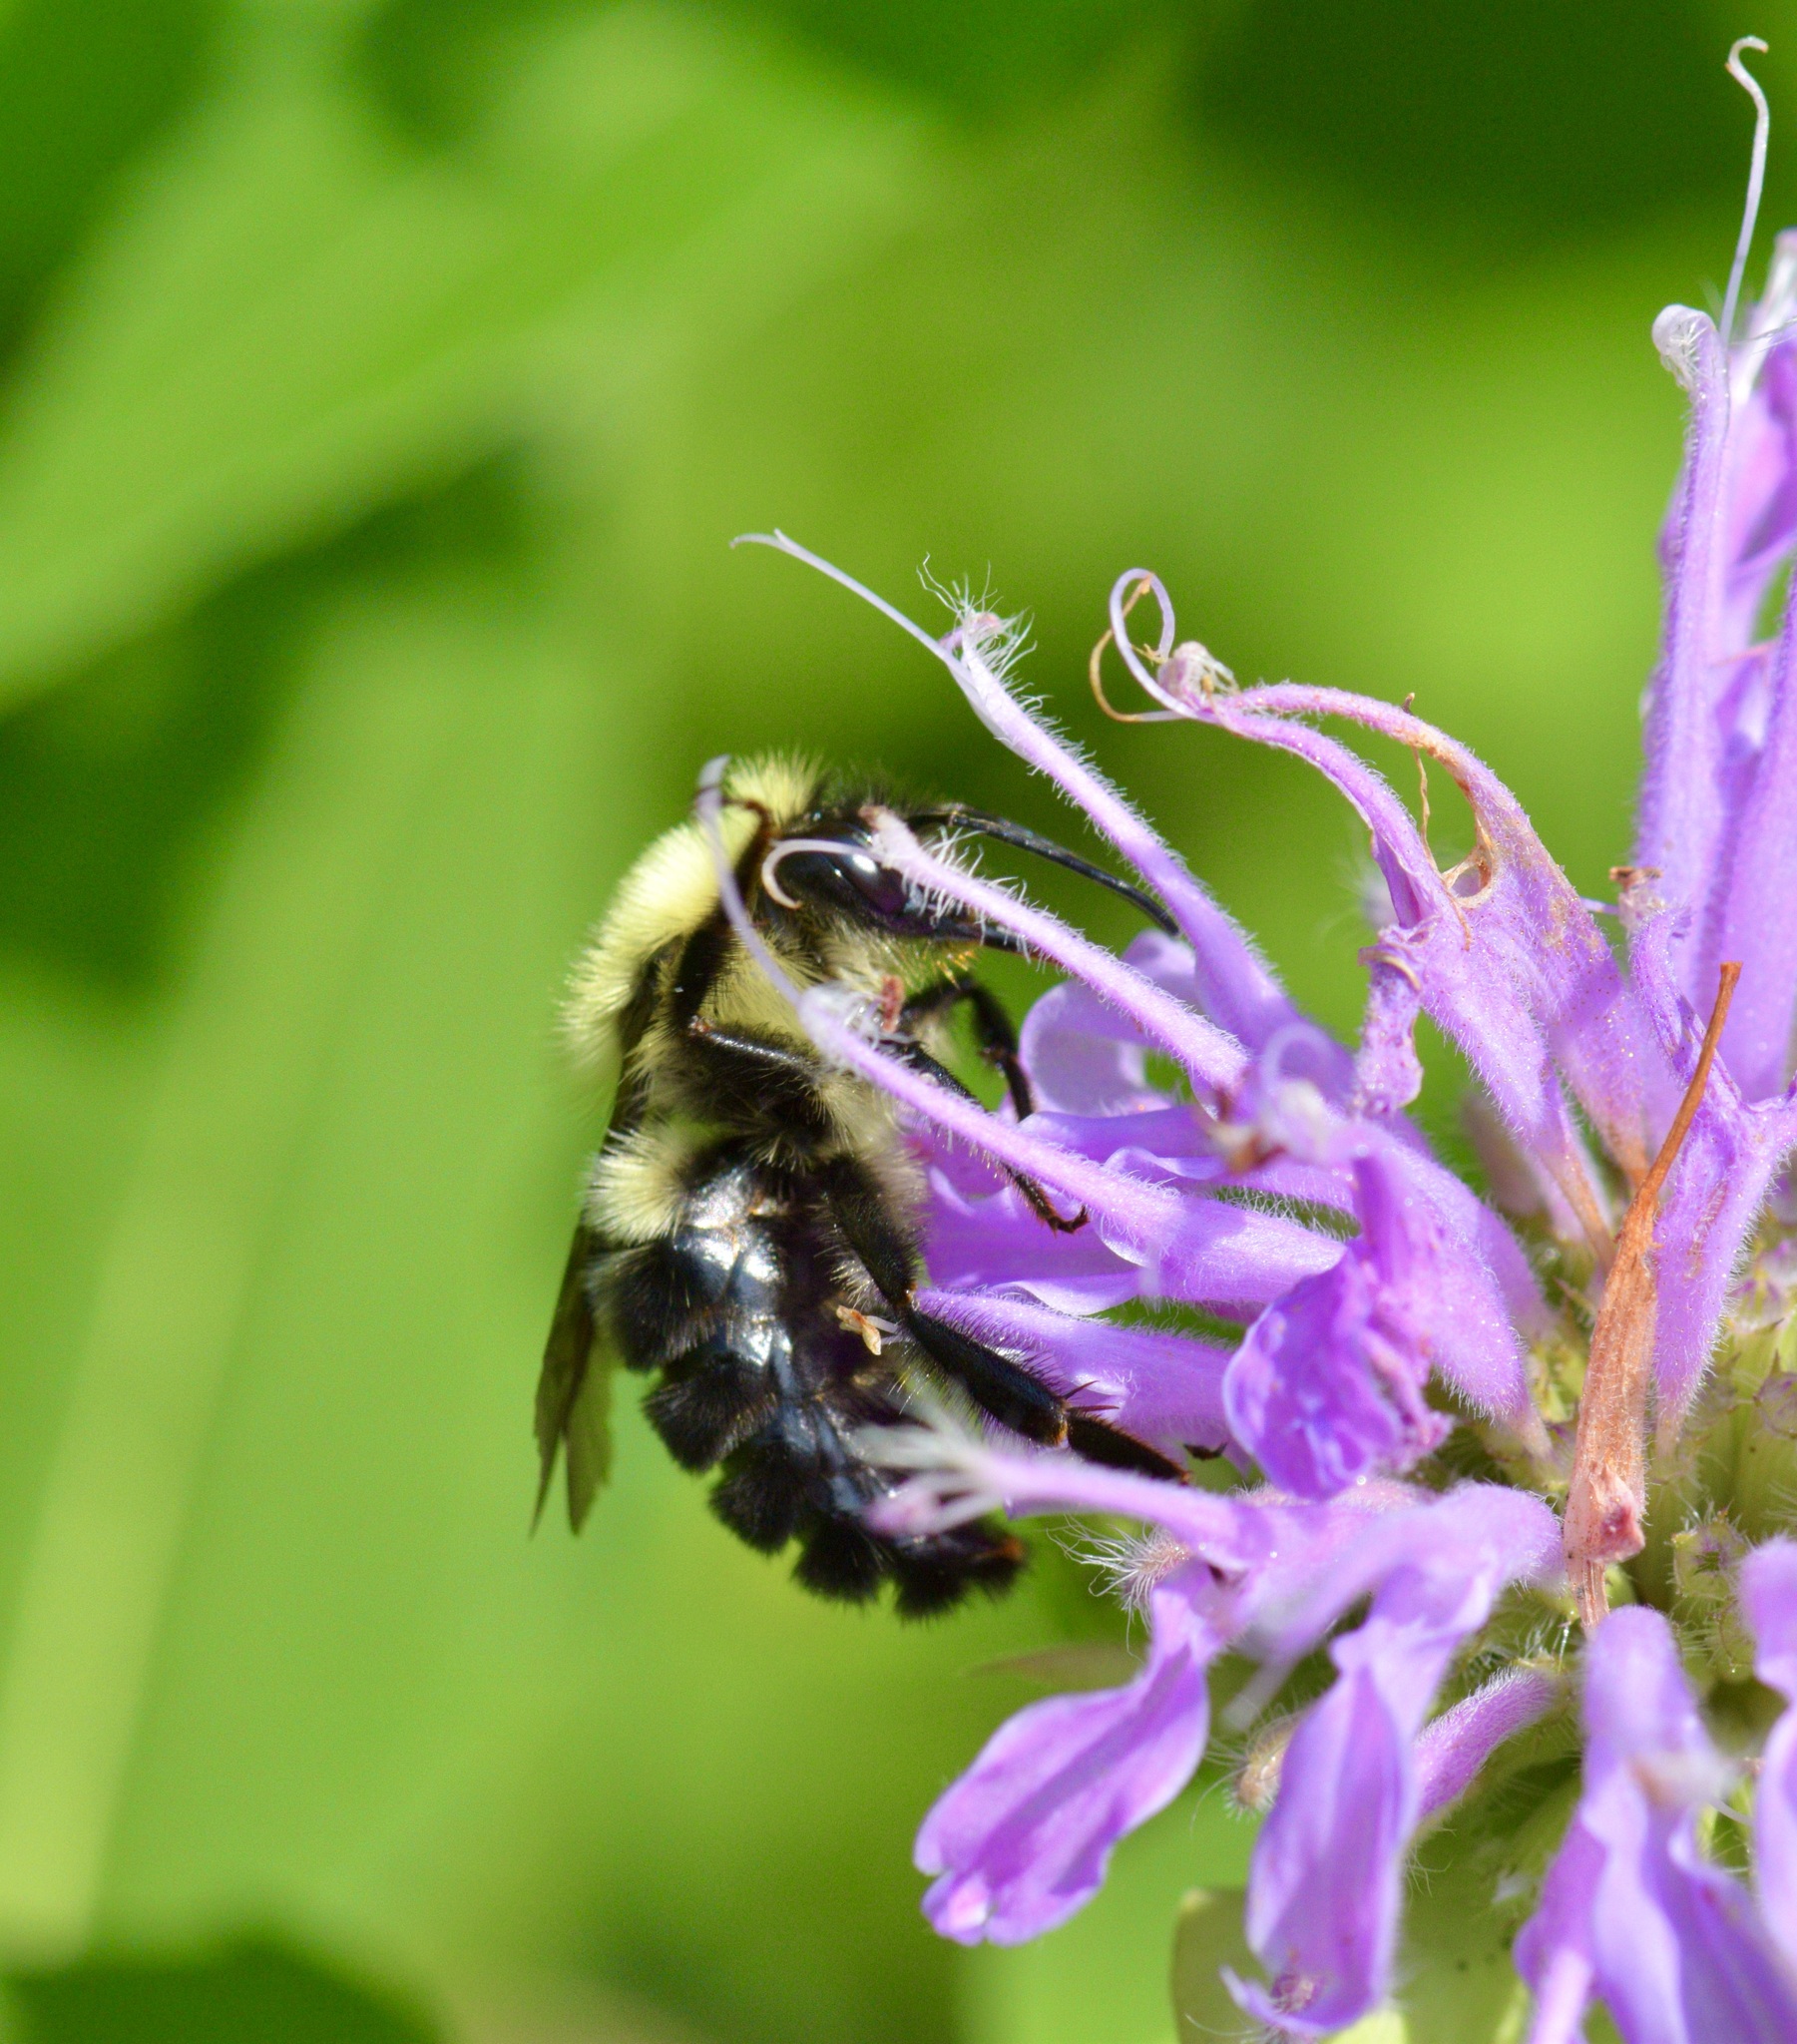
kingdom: Animalia
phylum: Arthropoda
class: Insecta
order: Hymenoptera
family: Apidae
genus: Bombus
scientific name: Bombus impatiens
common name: Common eastern bumble bee
